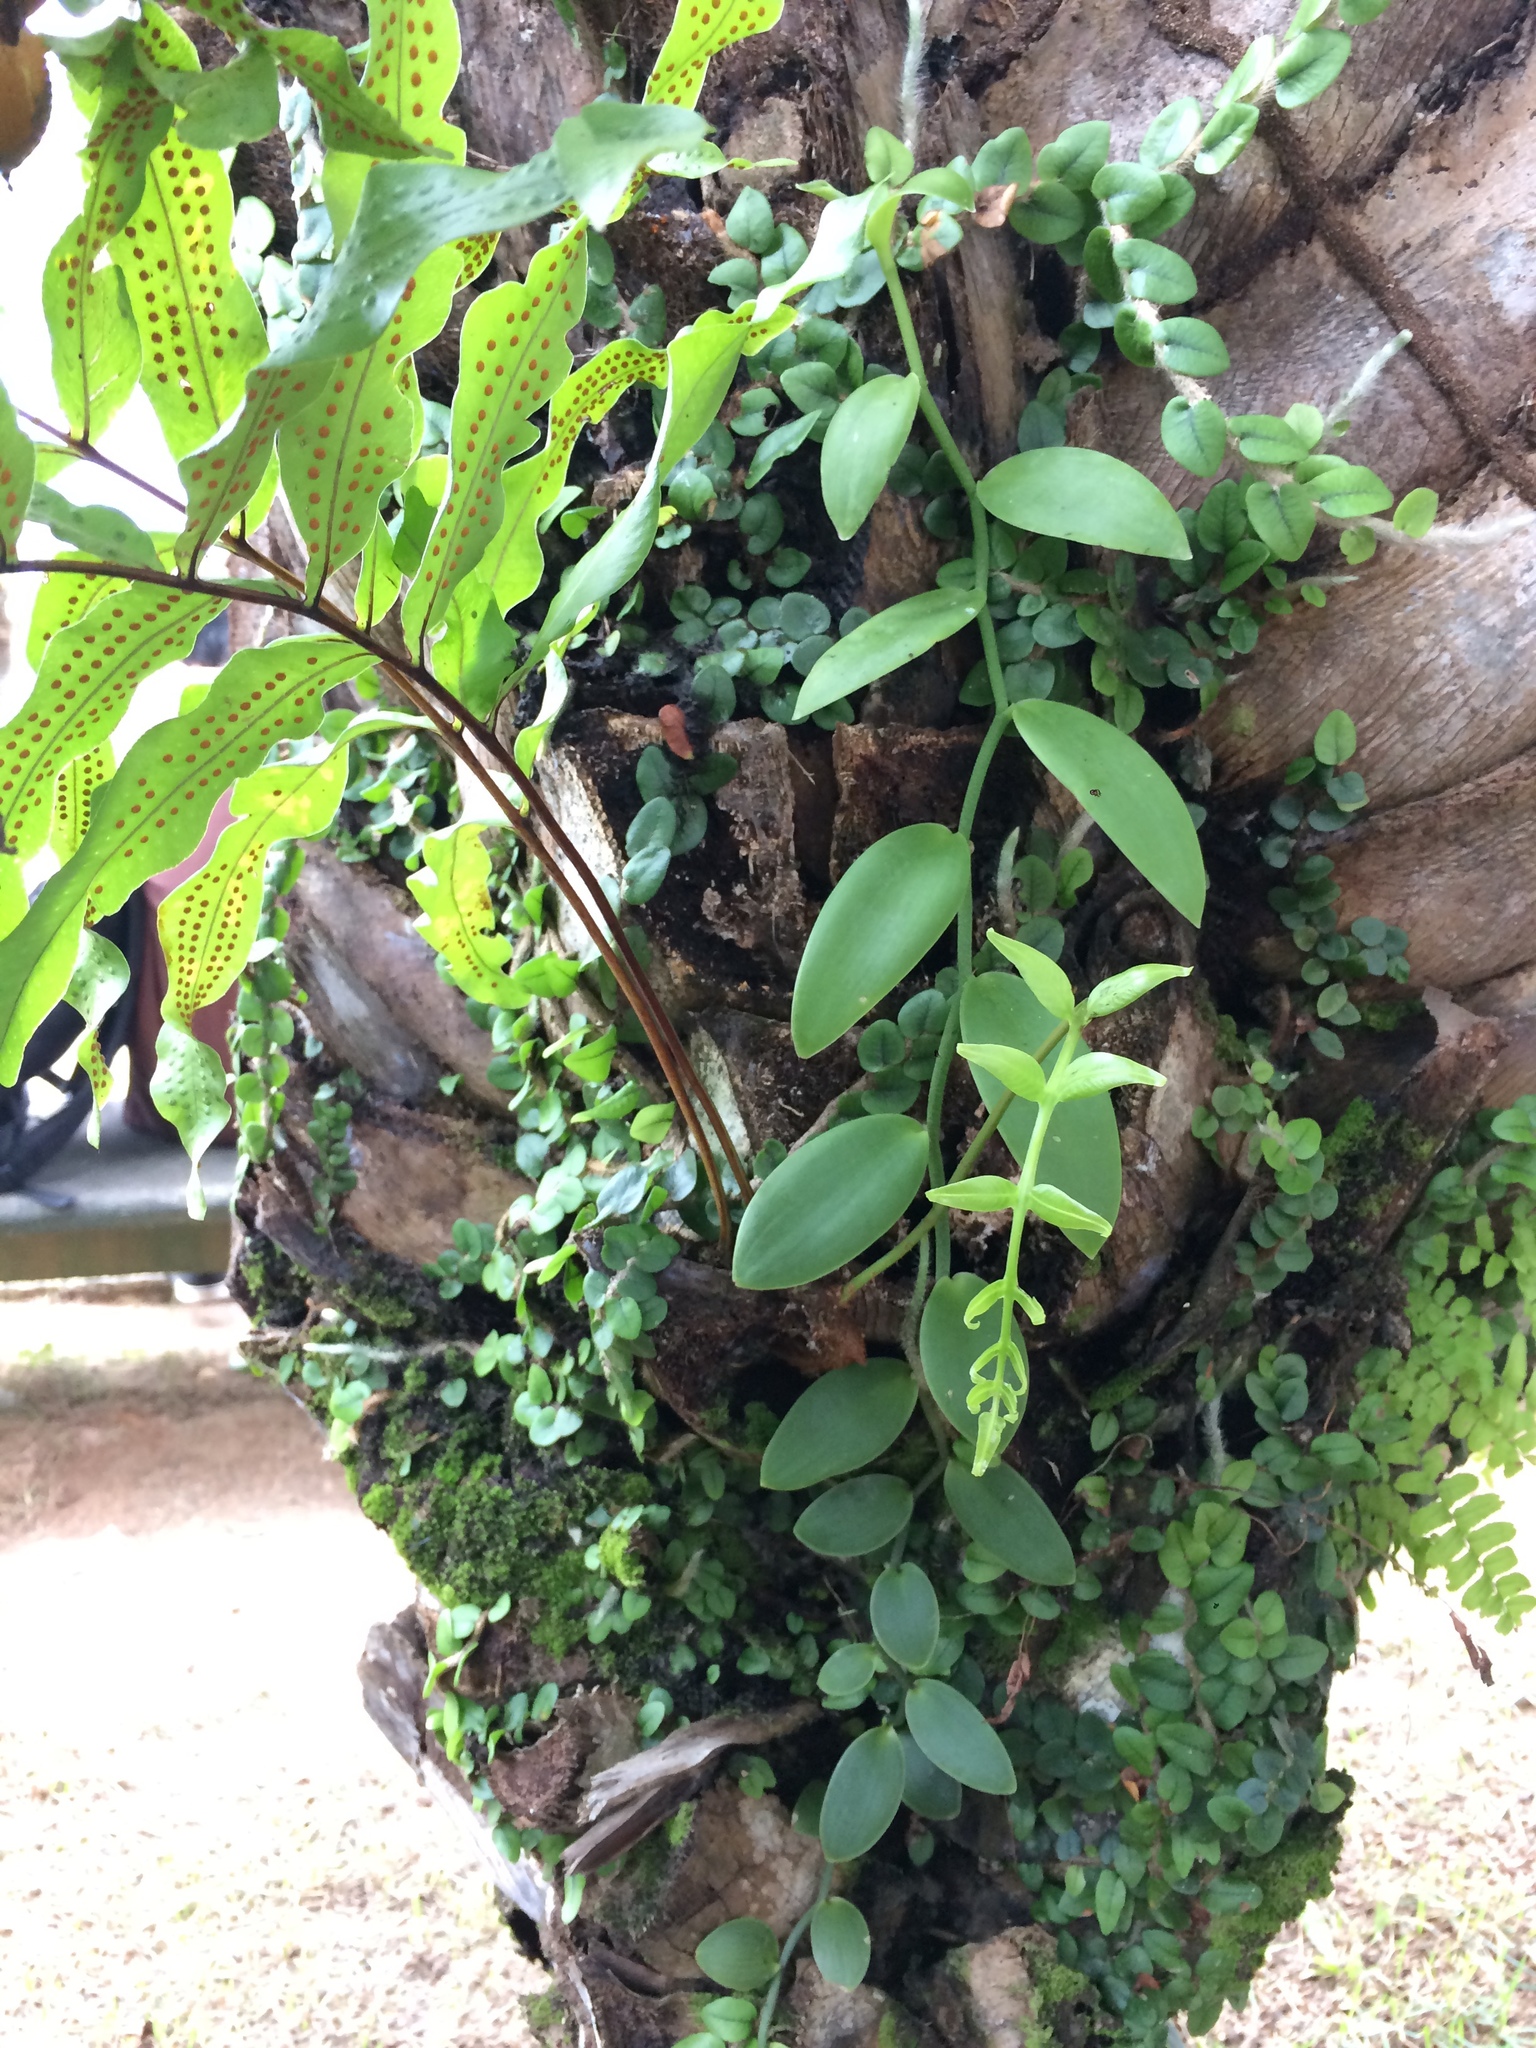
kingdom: Plantae
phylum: Tracheophyta
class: Liliopsida
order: Asparagales
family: Orchidaceae
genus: Vanilla
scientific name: Vanilla palmarum
